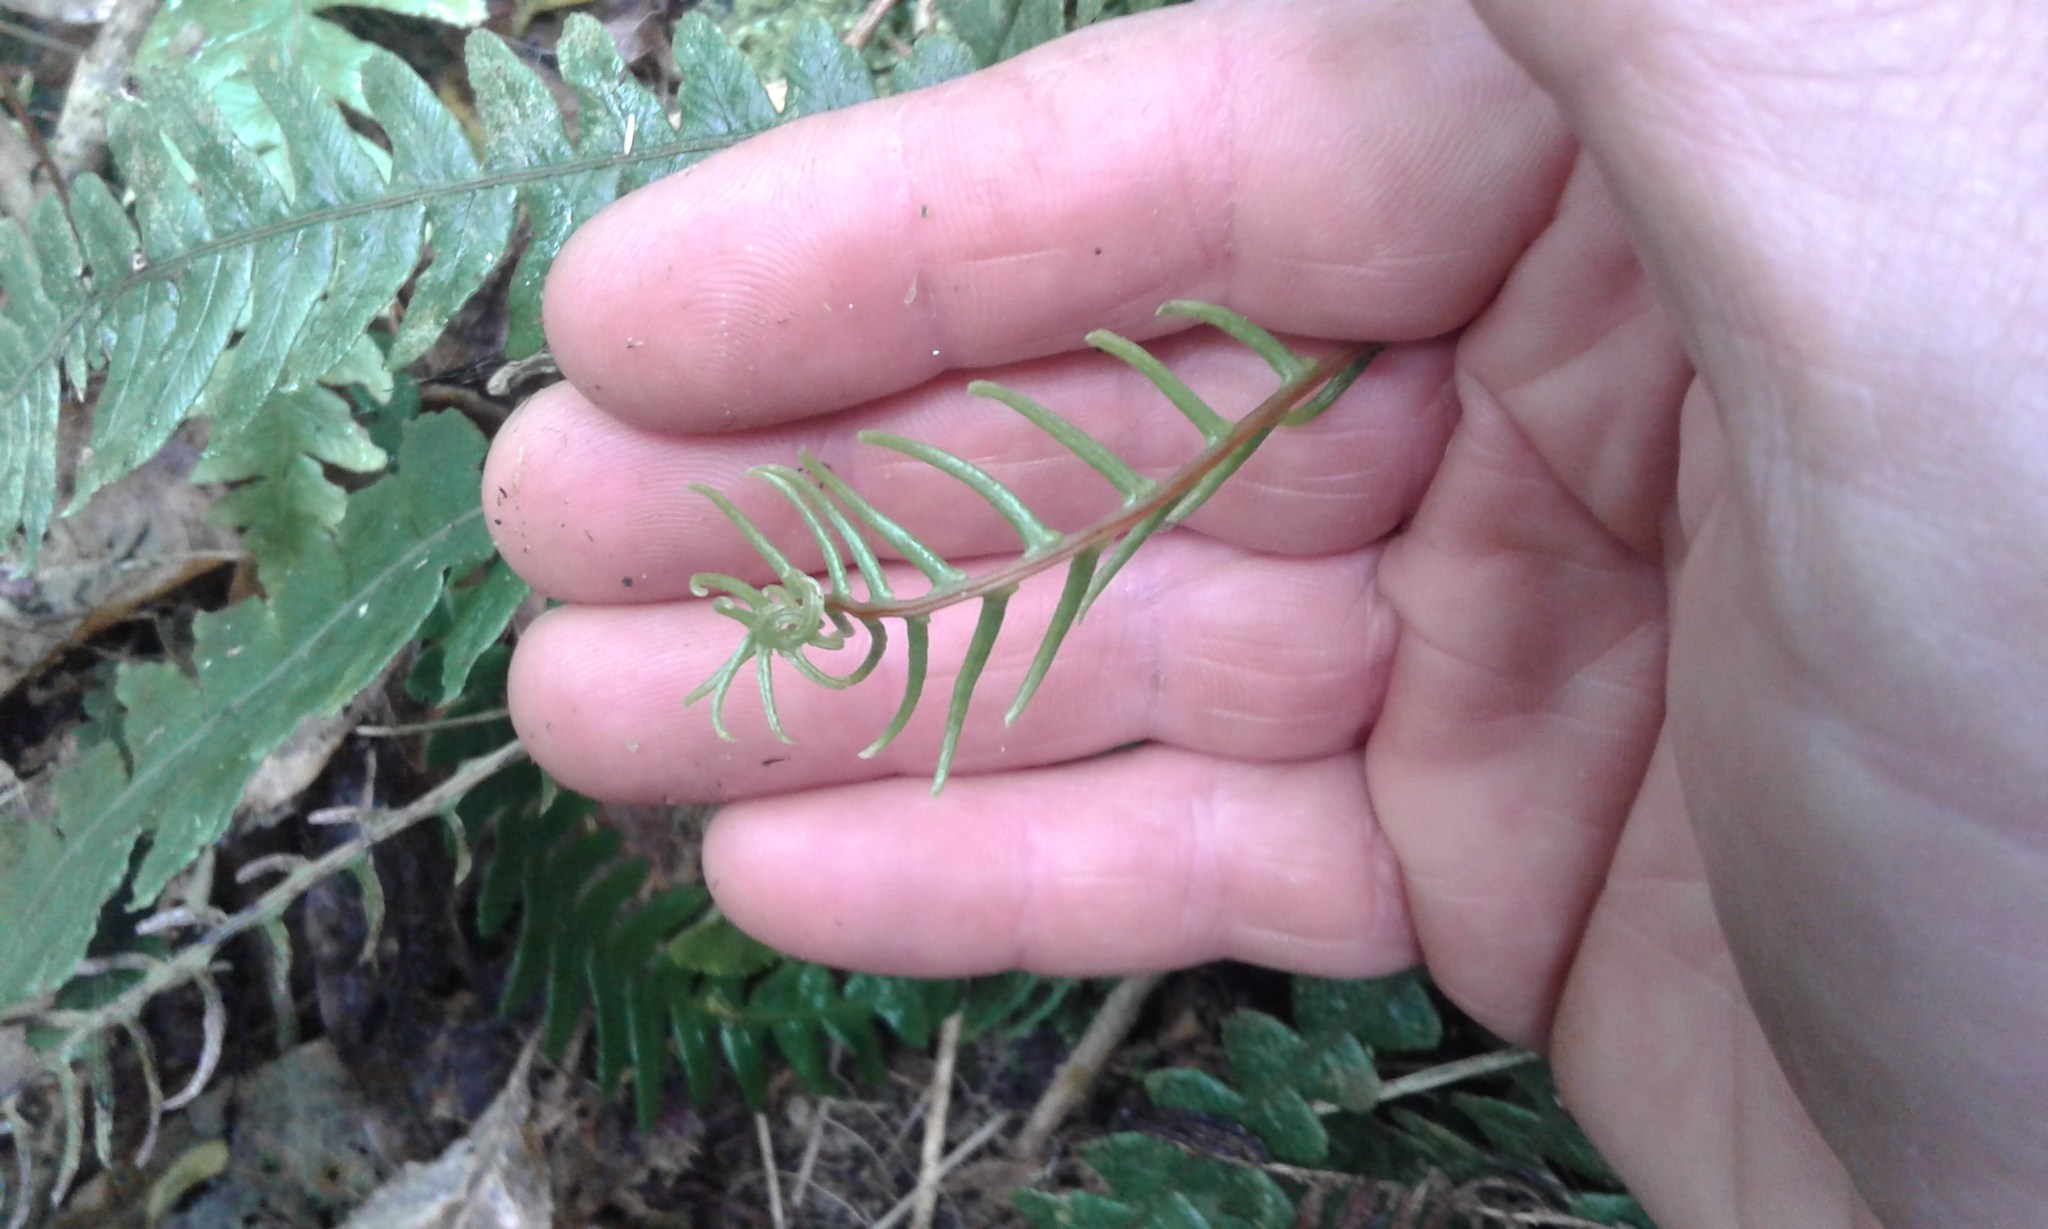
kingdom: Plantae
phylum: Tracheophyta
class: Polypodiopsida
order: Polypodiales
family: Blechnaceae
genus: Austroblechnum
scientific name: Austroblechnum lanceolatum
